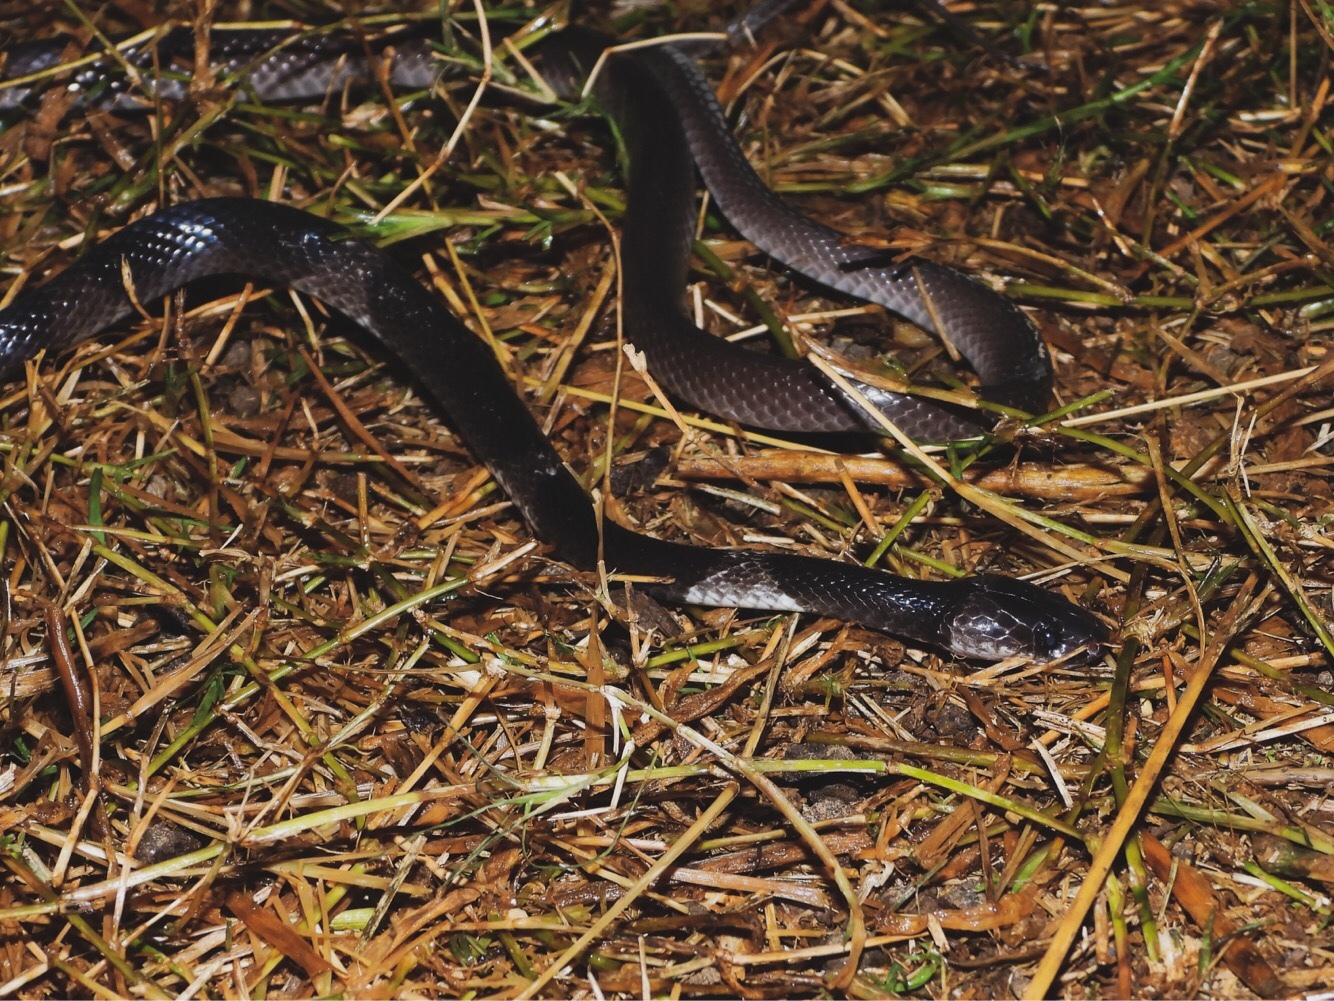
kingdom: Animalia
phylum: Chordata
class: Squamata
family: Colubridae
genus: Lycodon
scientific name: Lycodon subcinctus
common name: Malayan banded wolf snake
